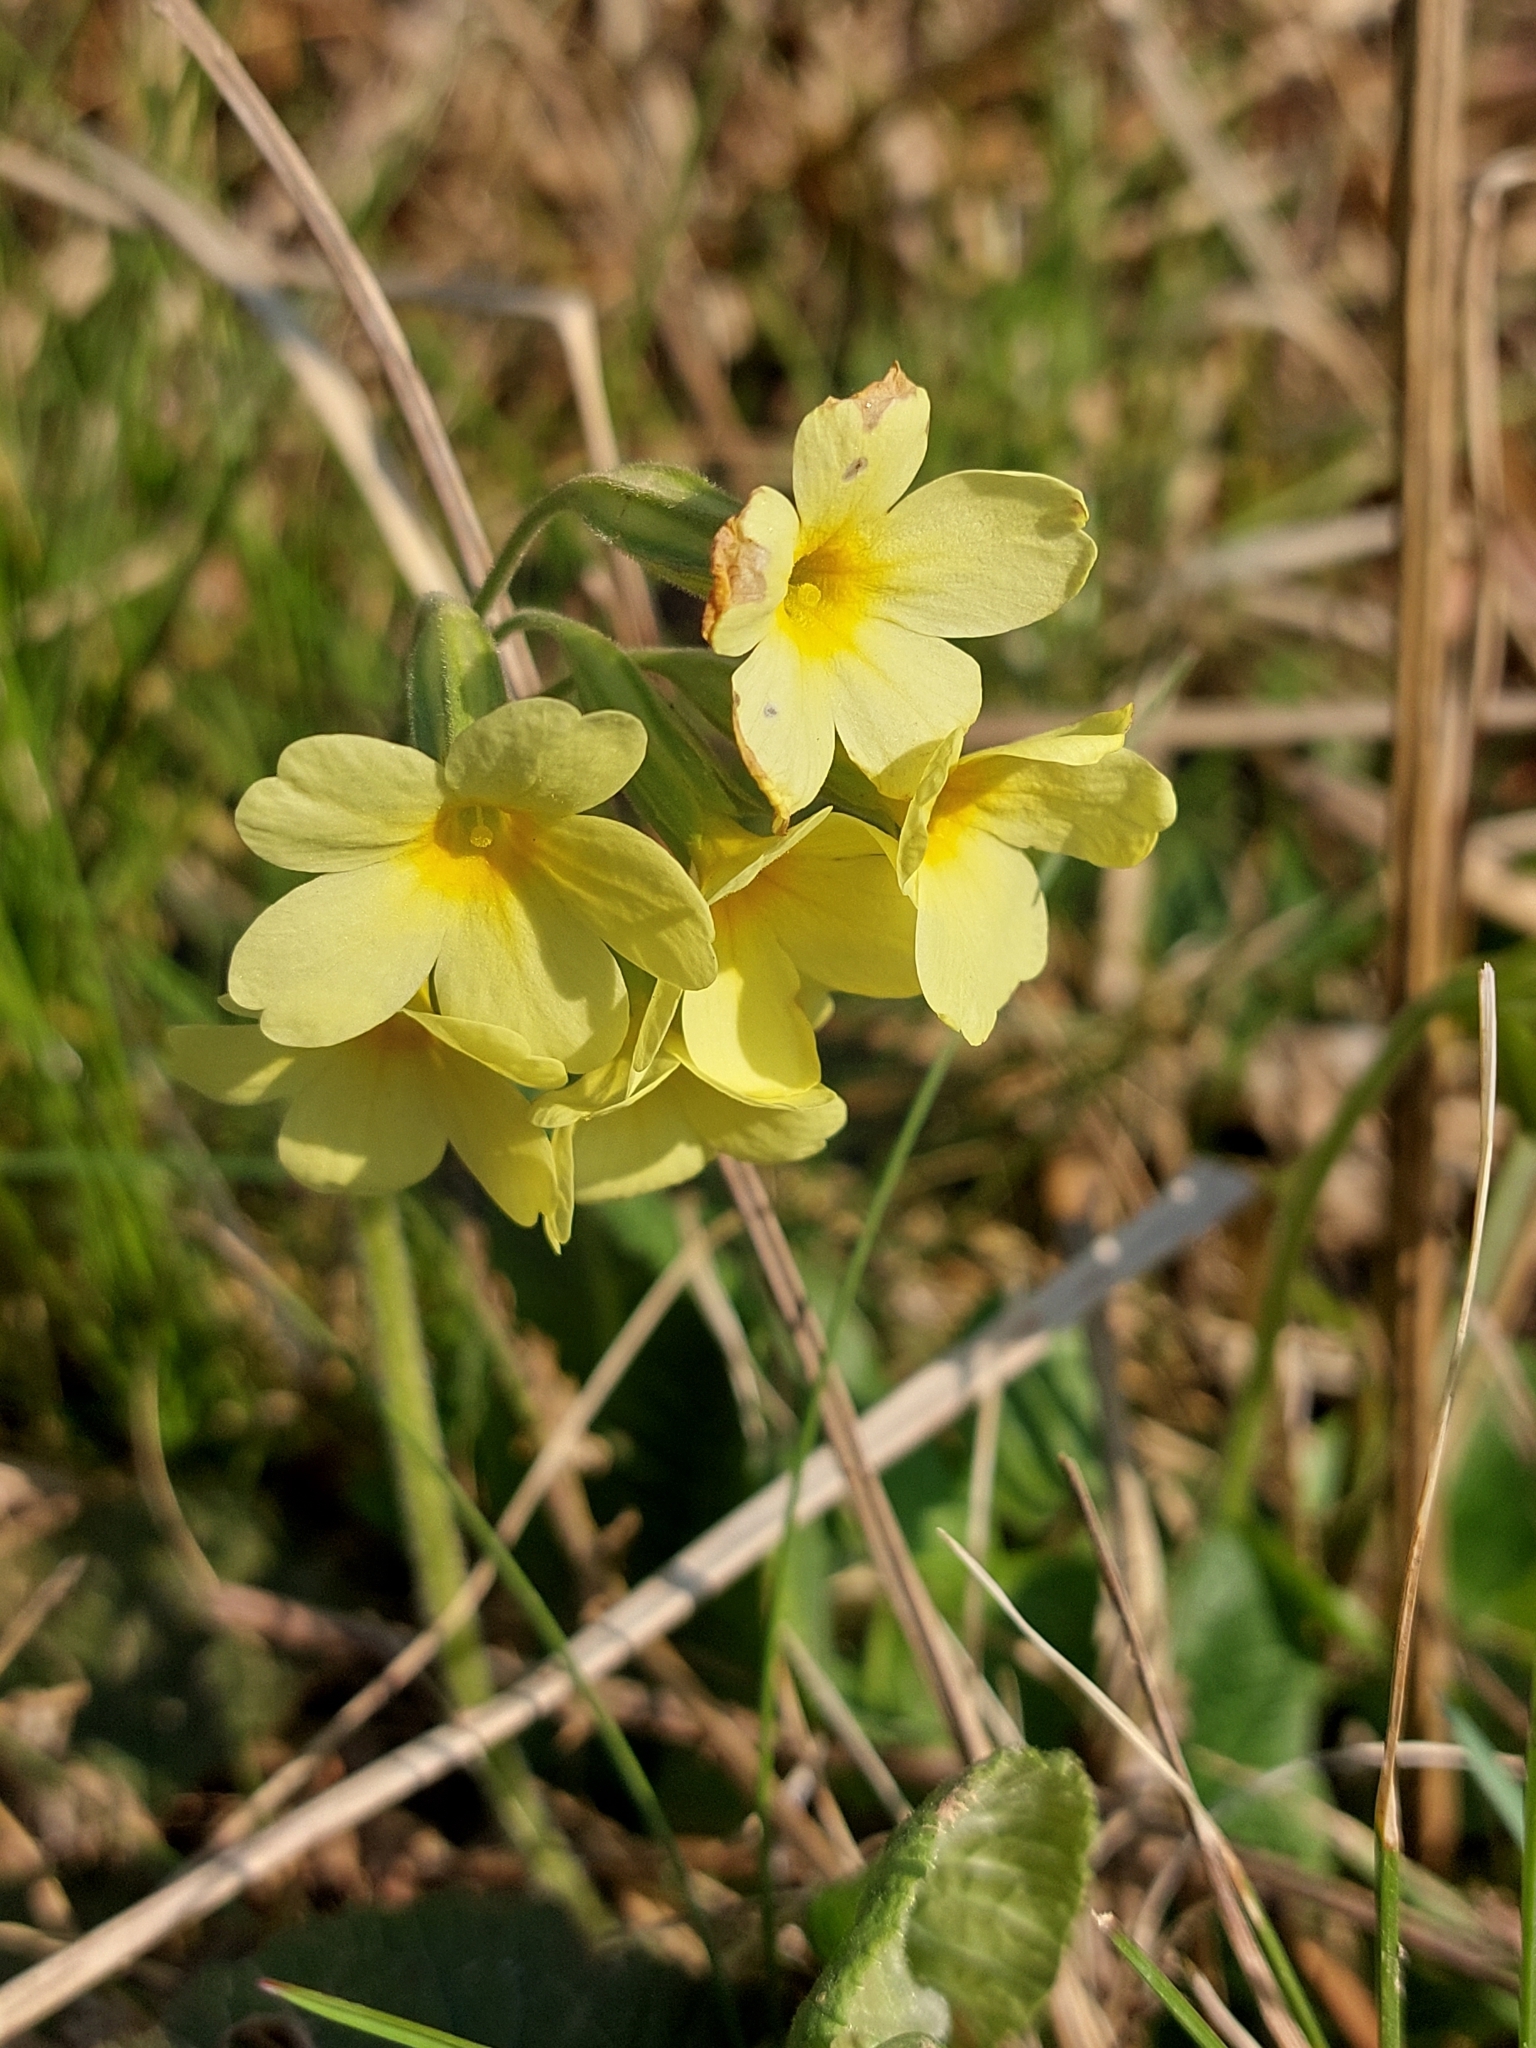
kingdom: Plantae
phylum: Tracheophyta
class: Magnoliopsida
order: Ericales
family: Primulaceae
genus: Primula
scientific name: Primula elatior
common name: Oxlip
